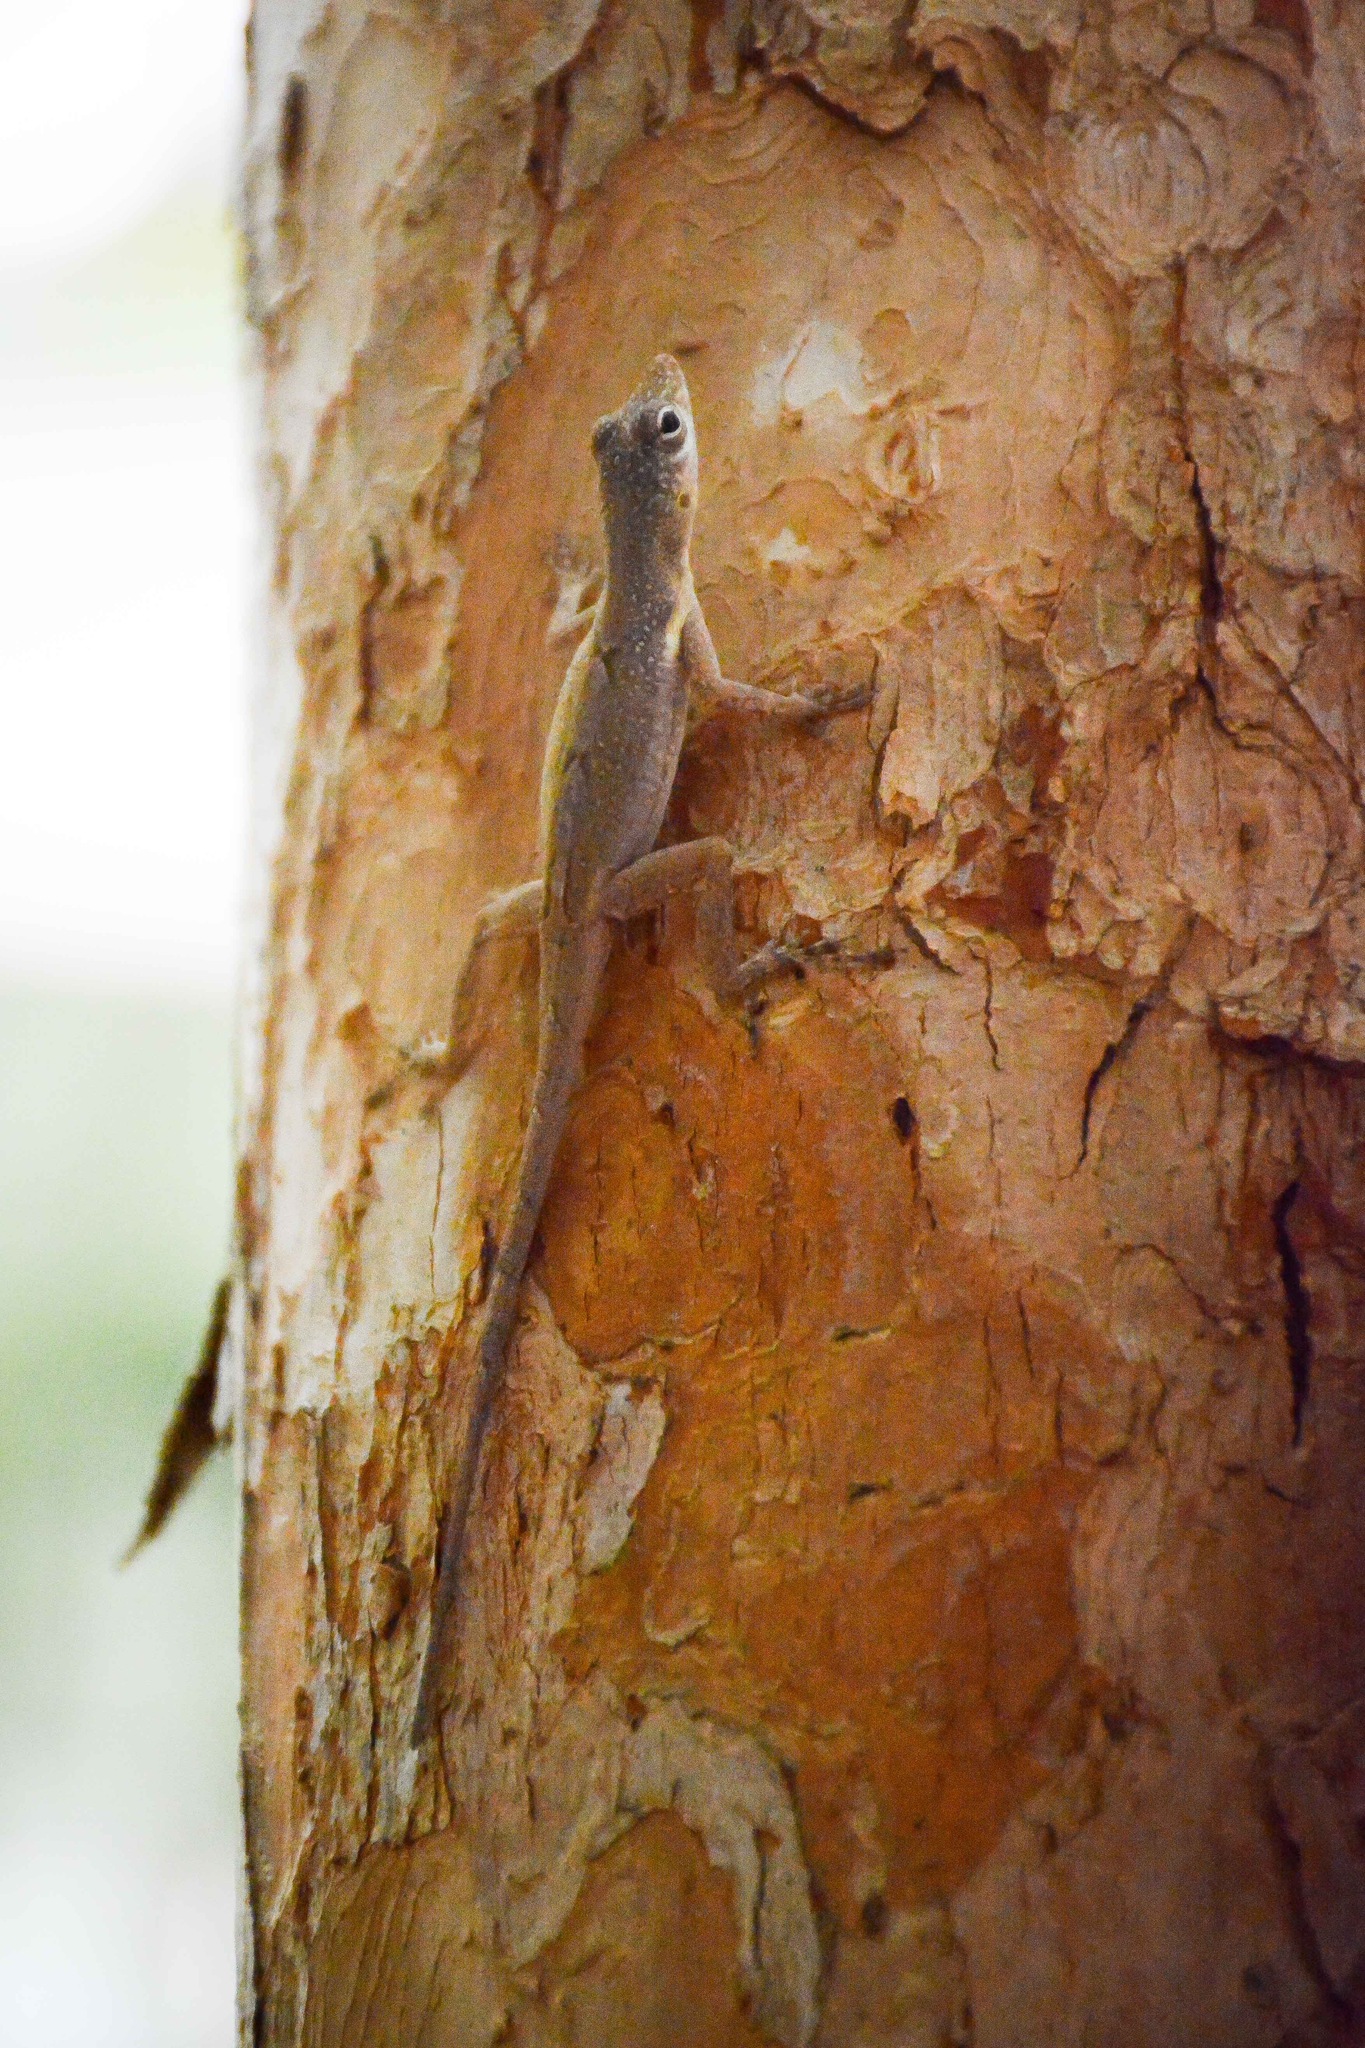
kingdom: Animalia
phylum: Chordata
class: Squamata
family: Dactyloidae
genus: Anolis
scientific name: Anolis conspersus
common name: Grand cayman anole
